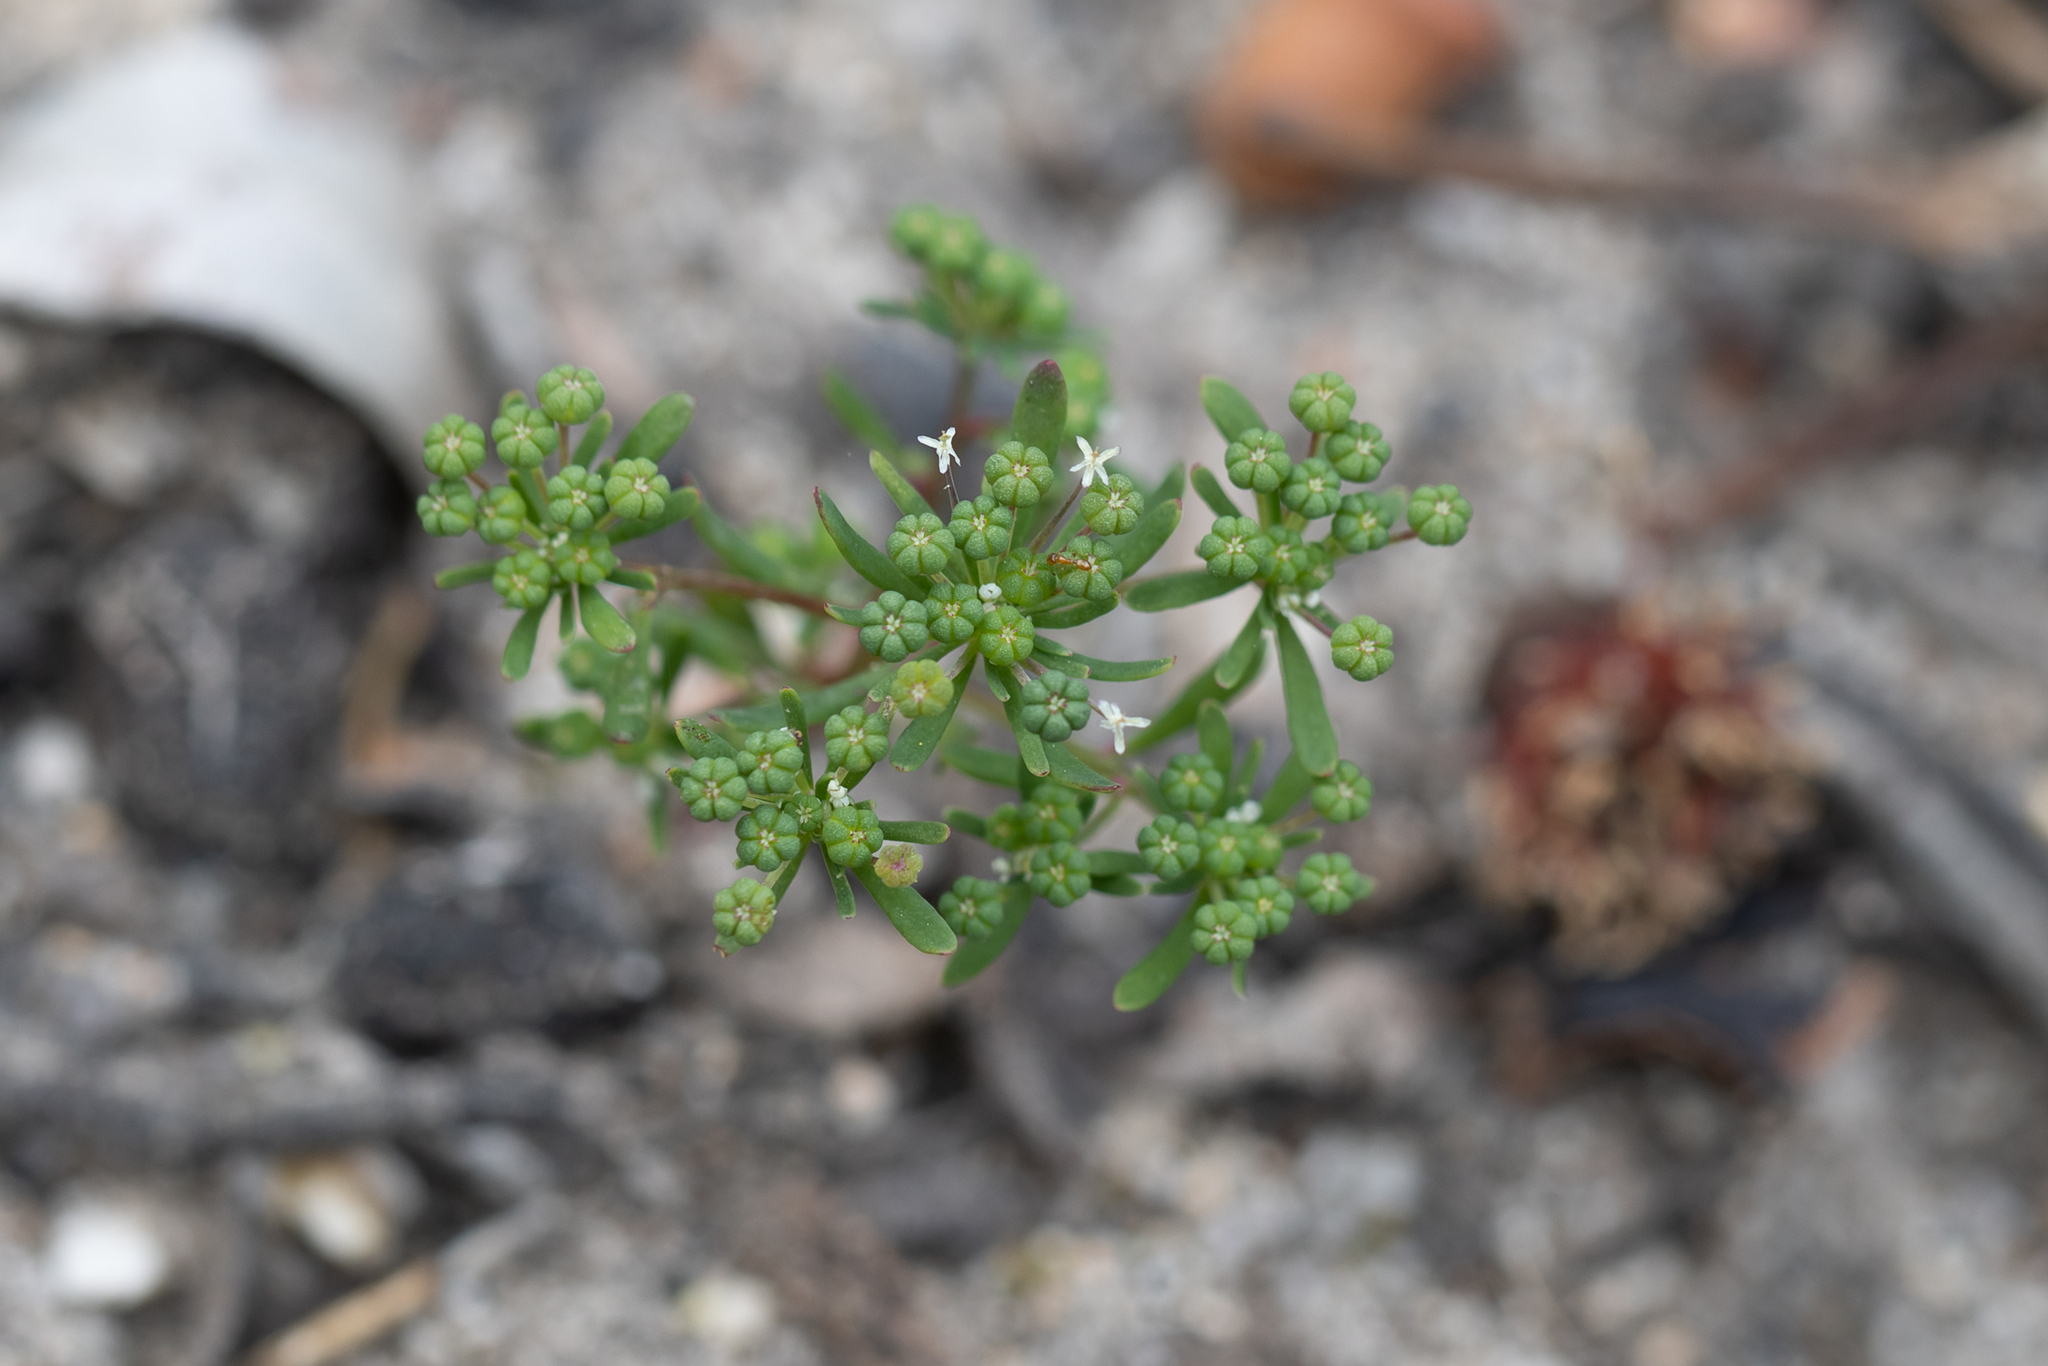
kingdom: Plantae
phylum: Tracheophyta
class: Magnoliopsida
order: Malpighiales
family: Phyllanthaceae
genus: Poranthera
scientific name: Poranthera microphylla
